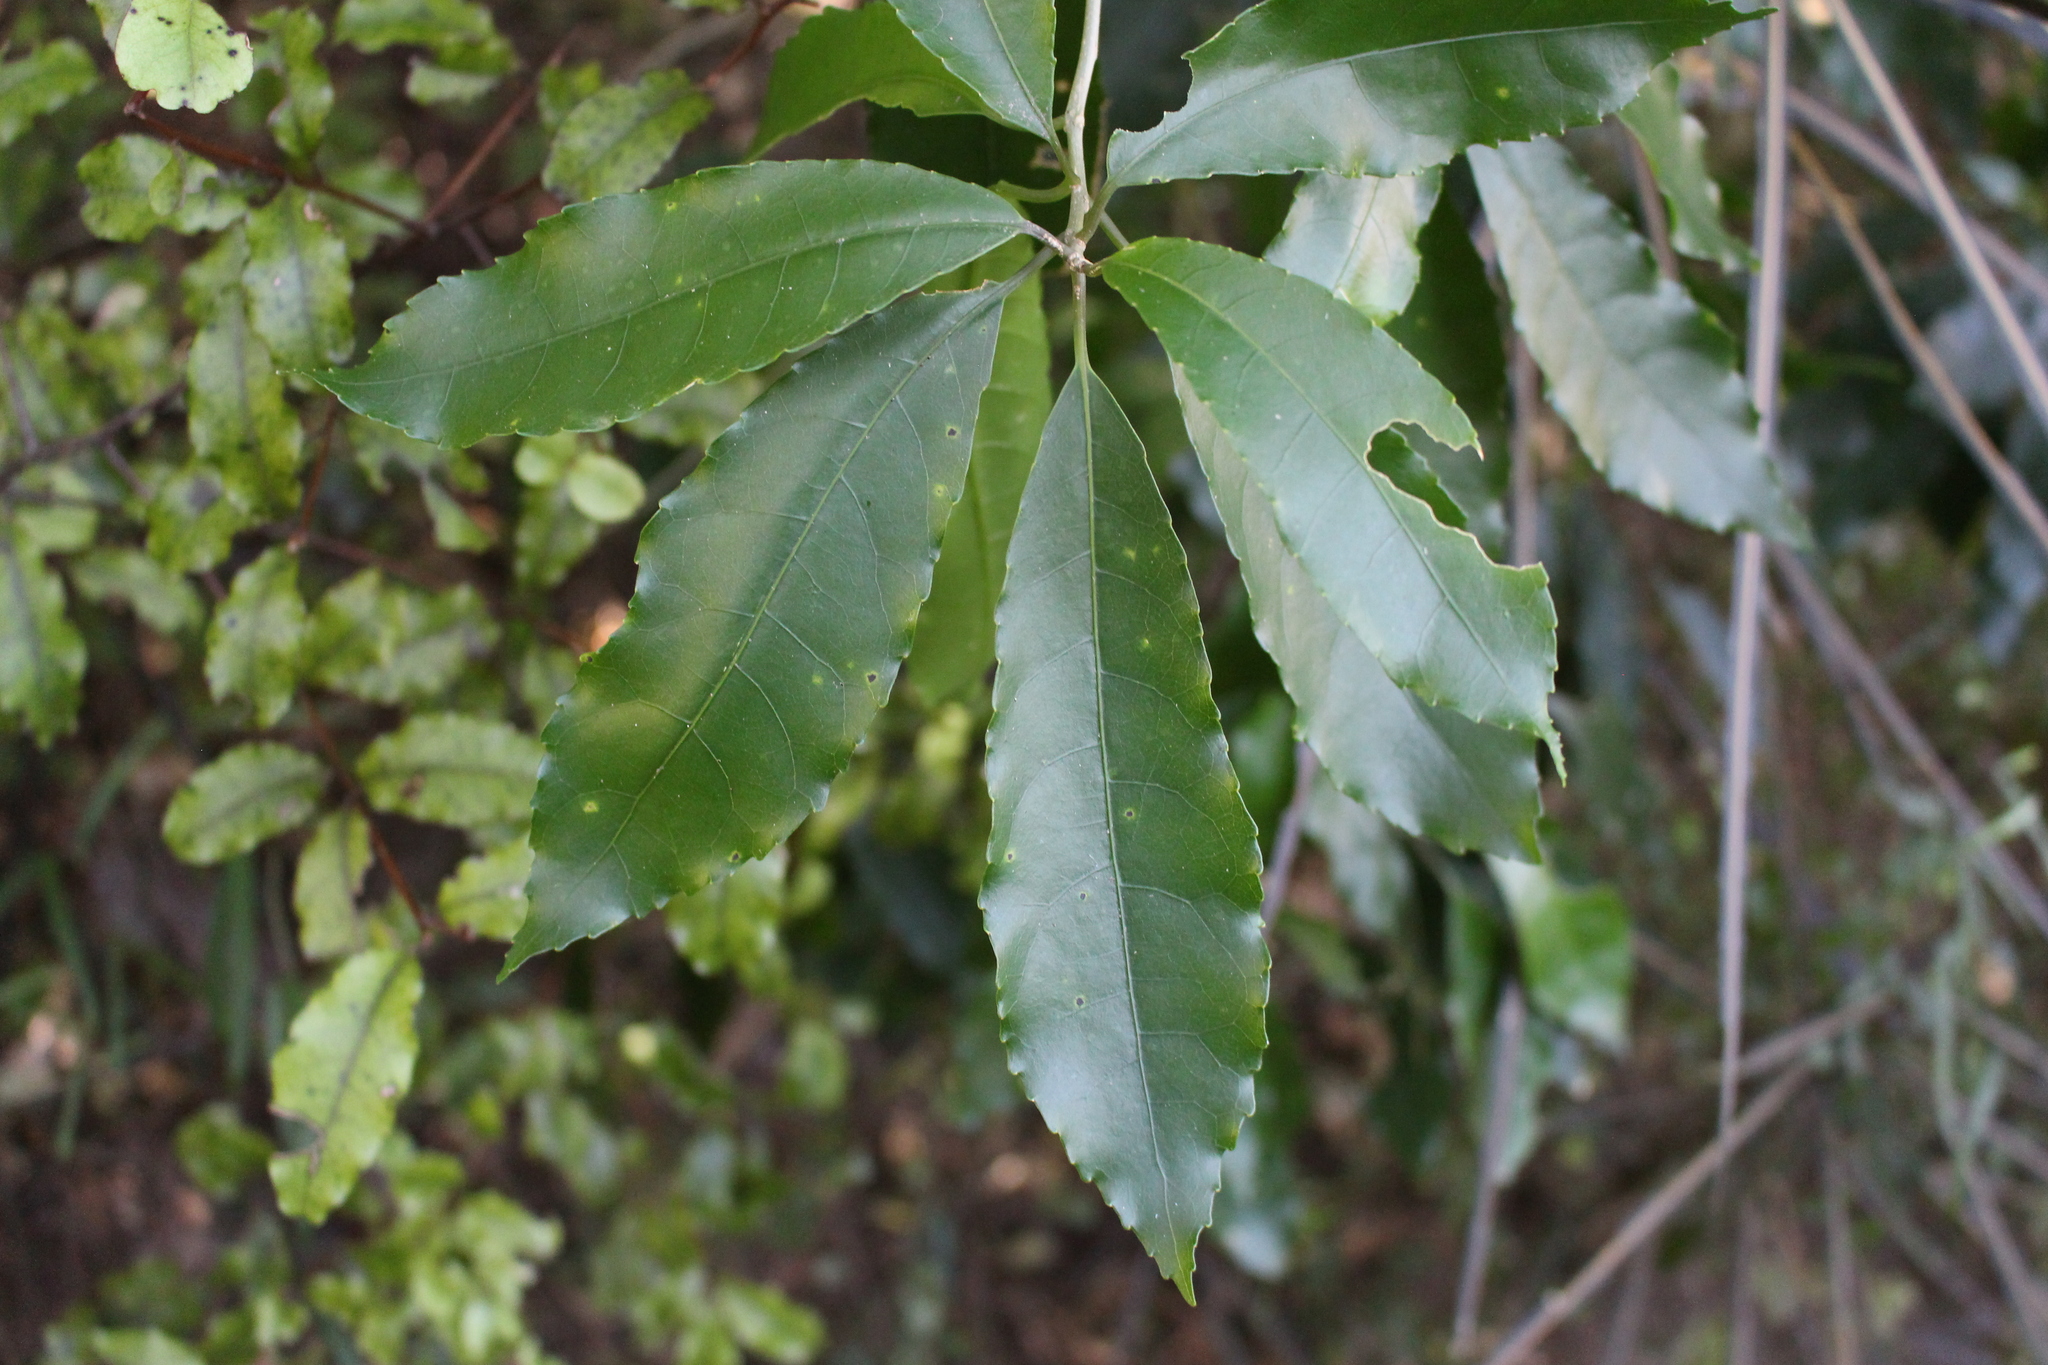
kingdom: Plantae
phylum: Tracheophyta
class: Magnoliopsida
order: Malpighiales
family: Violaceae
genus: Melicytus
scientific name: Melicytus ramiflorus
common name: Mahoe
